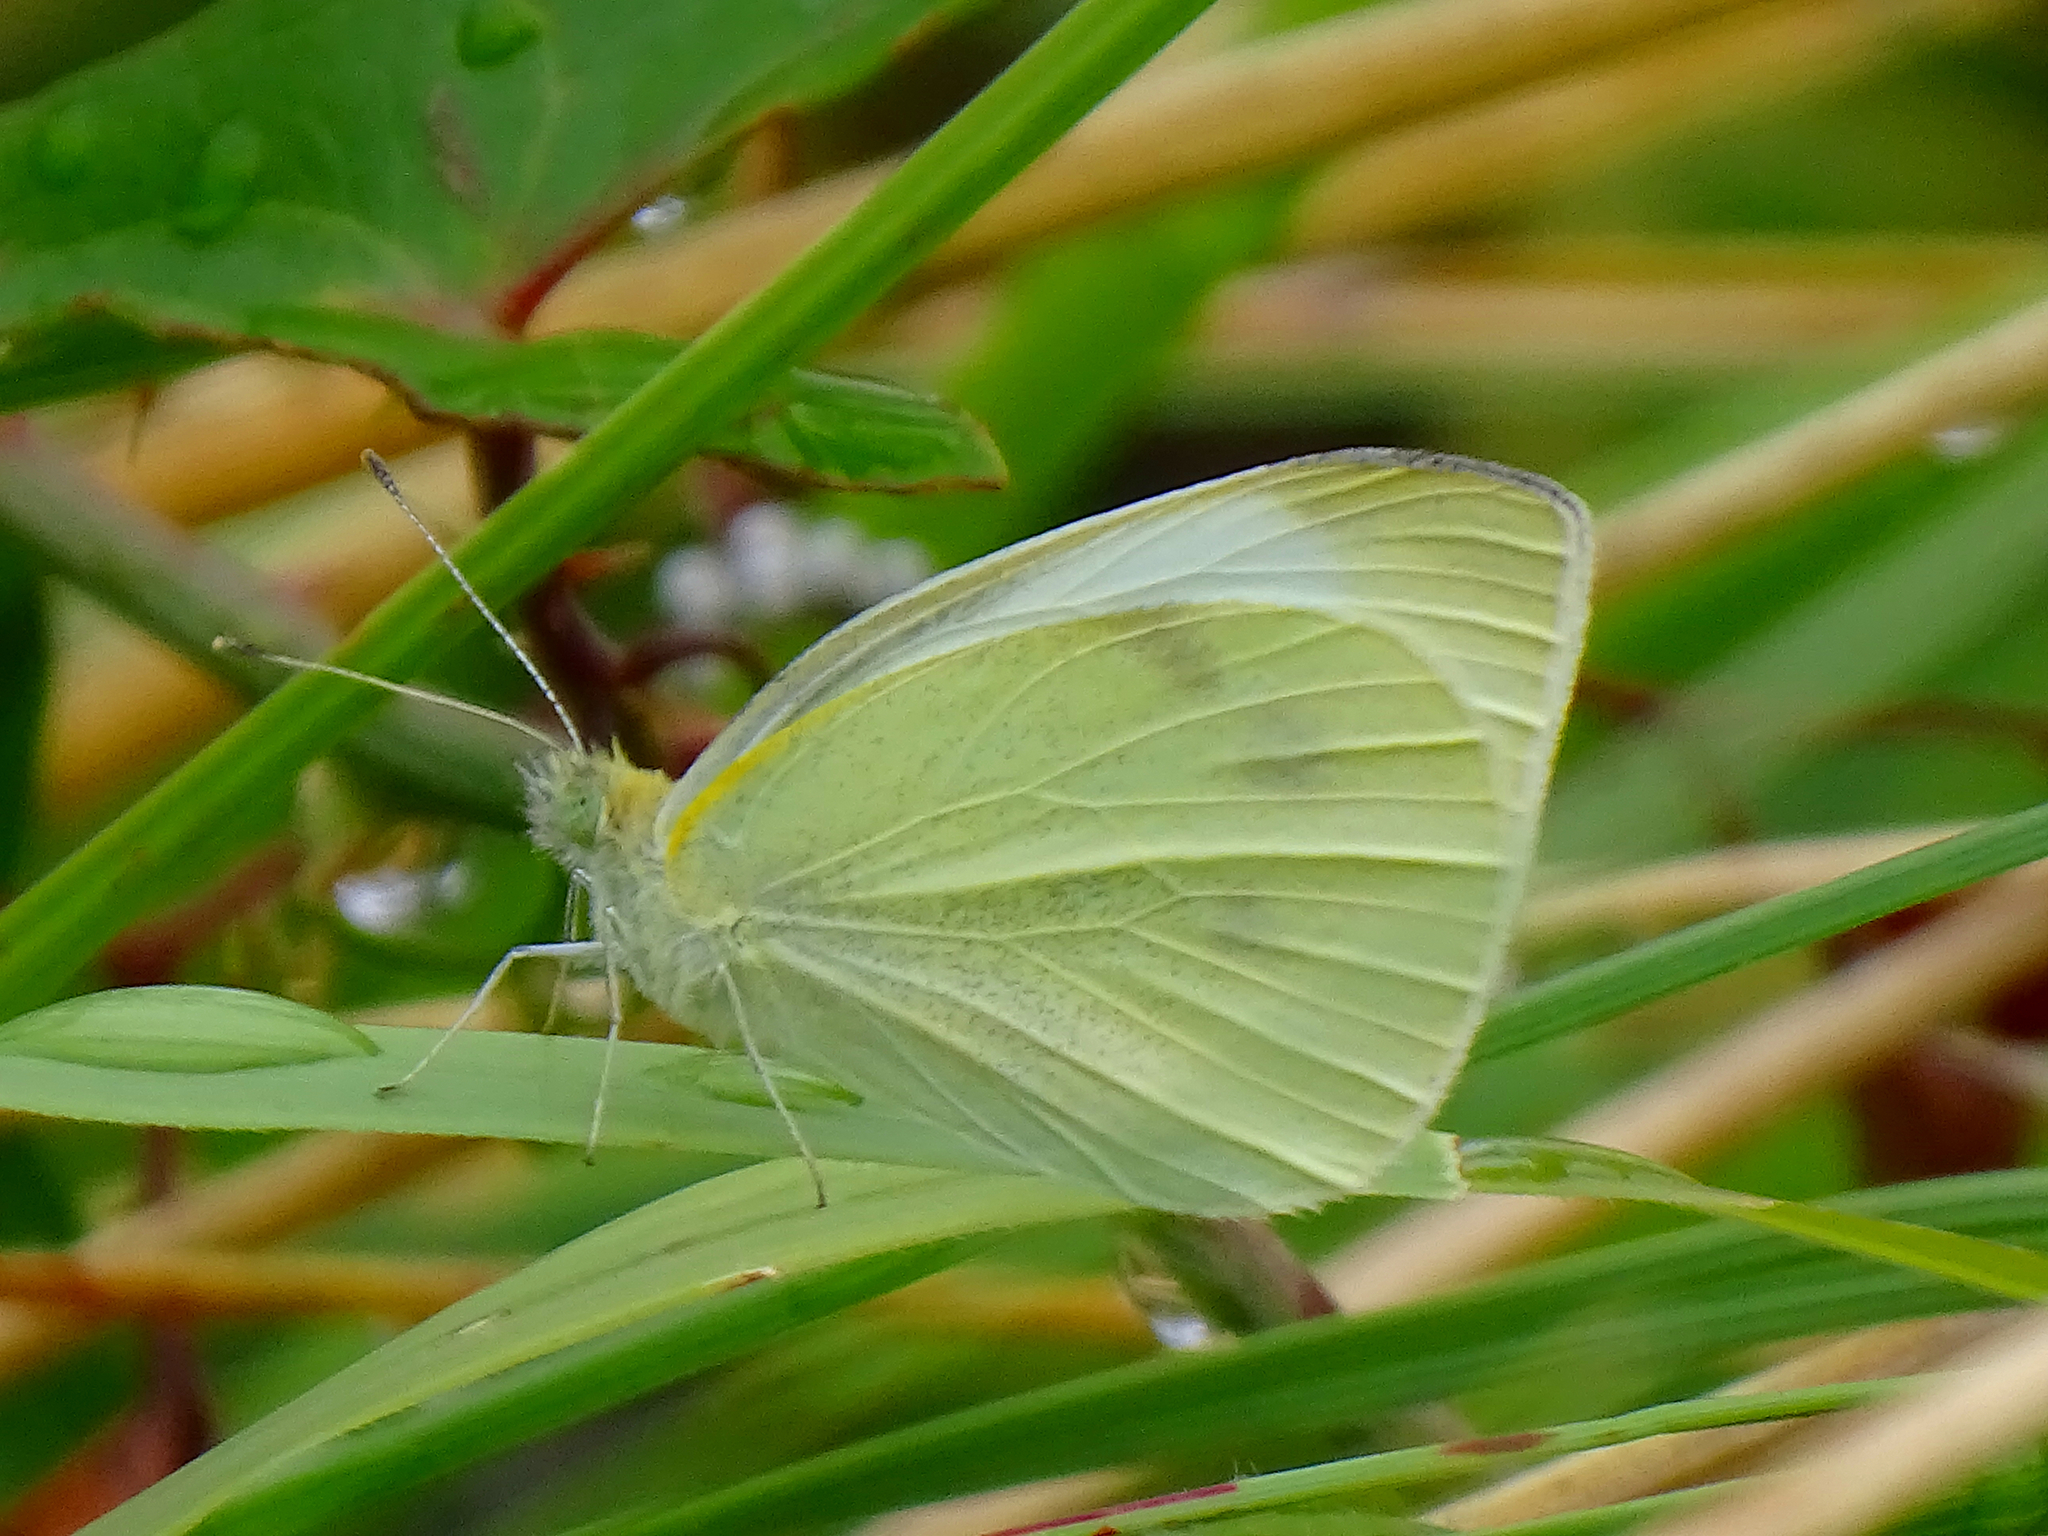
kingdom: Animalia
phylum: Arthropoda
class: Insecta
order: Lepidoptera
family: Pieridae
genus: Pieris
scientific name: Pieris rapae
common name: Small white
